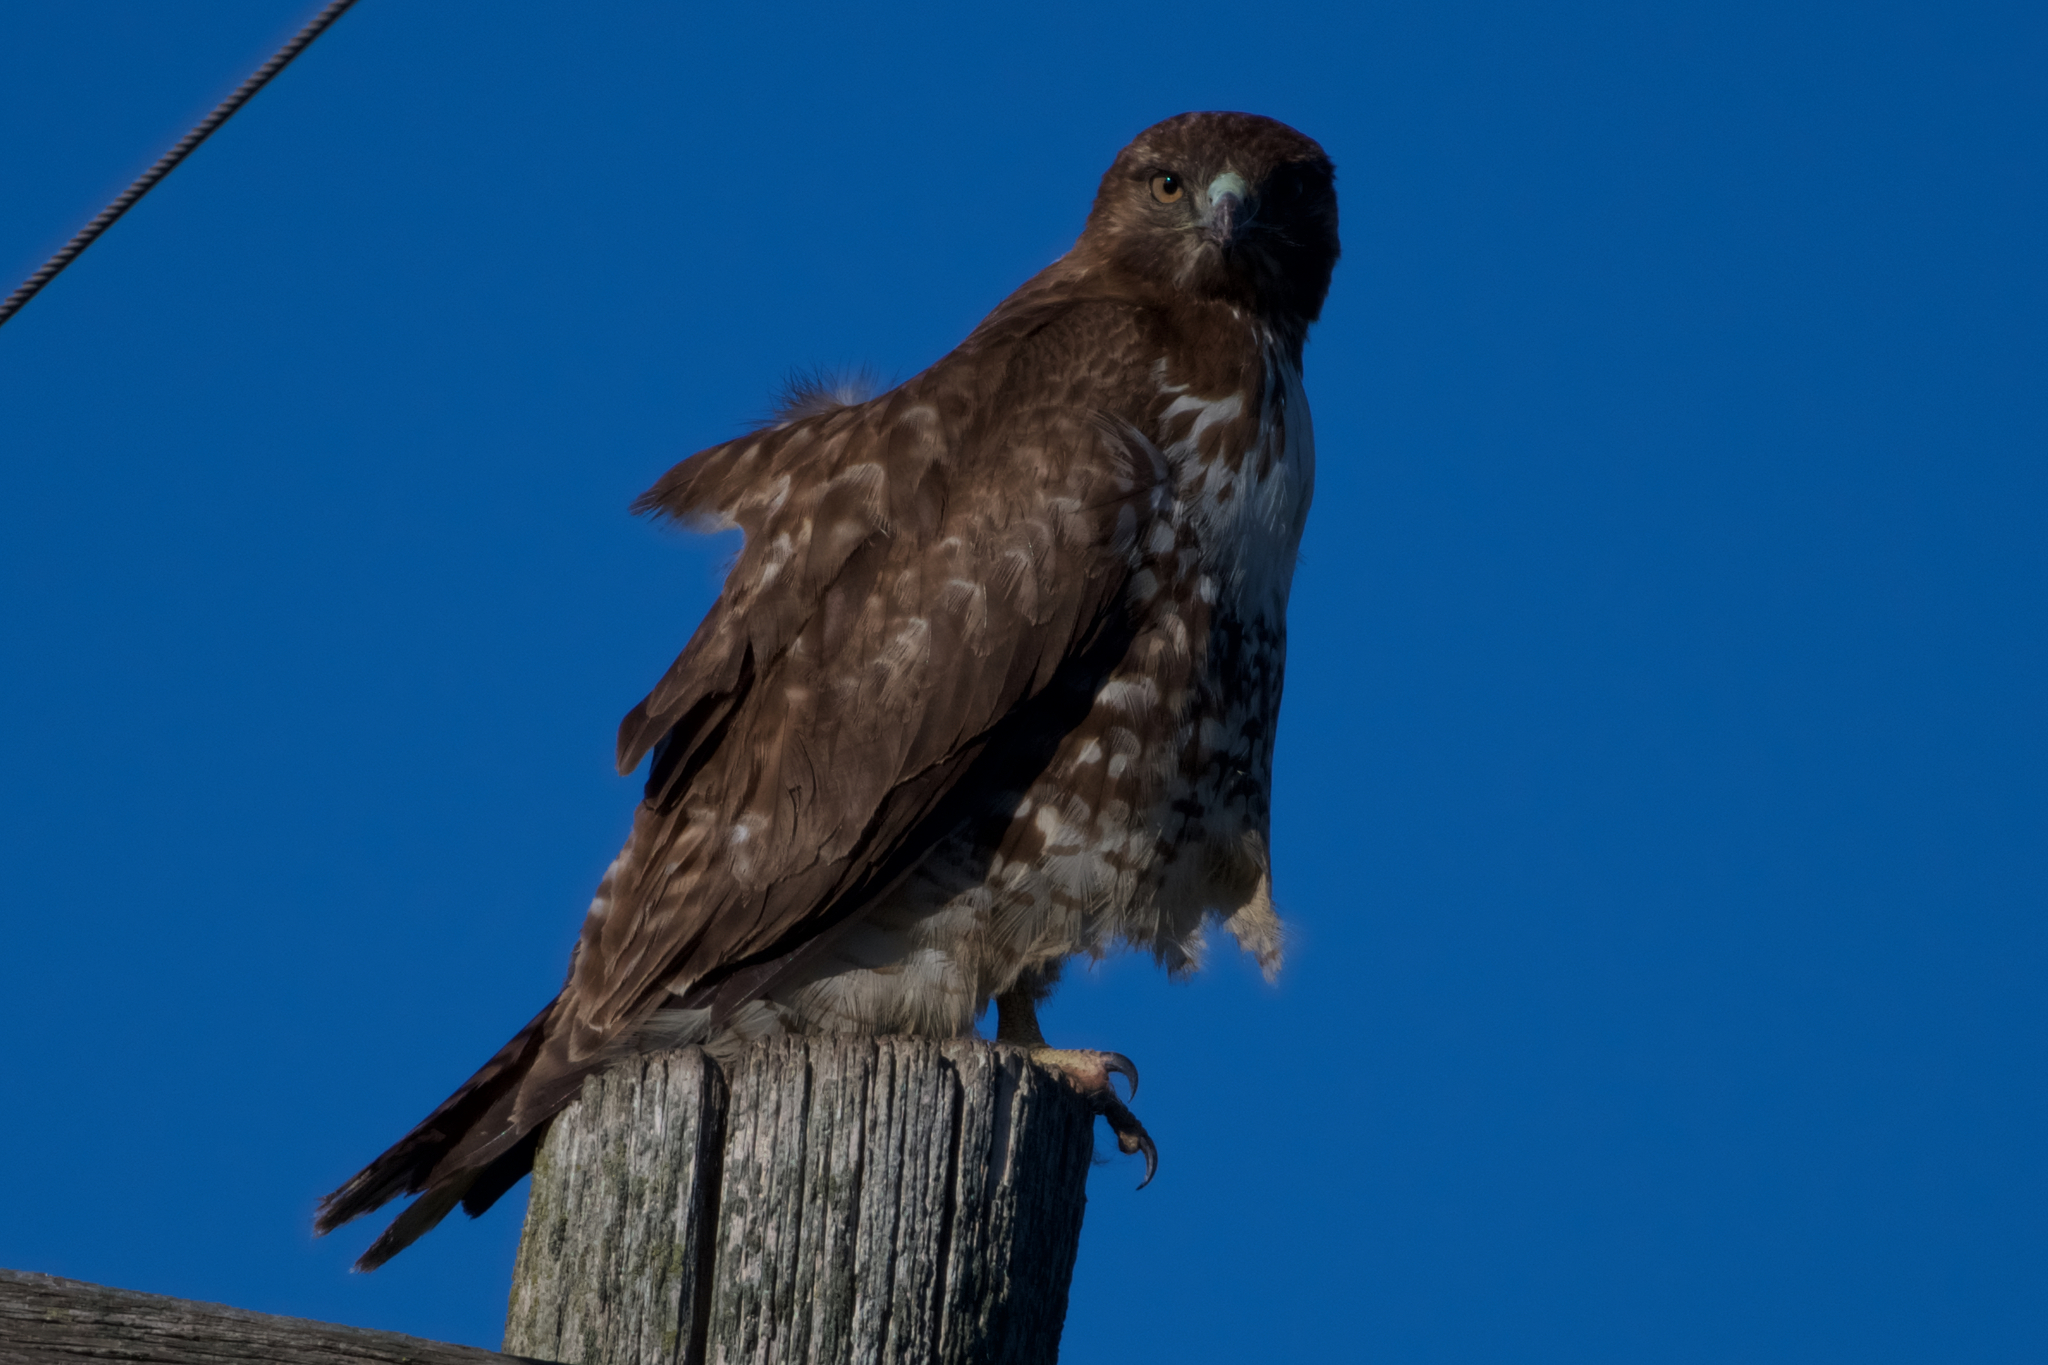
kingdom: Animalia
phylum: Chordata
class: Aves
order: Accipitriformes
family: Accipitridae
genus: Buteo
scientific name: Buteo jamaicensis
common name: Red-tailed hawk
